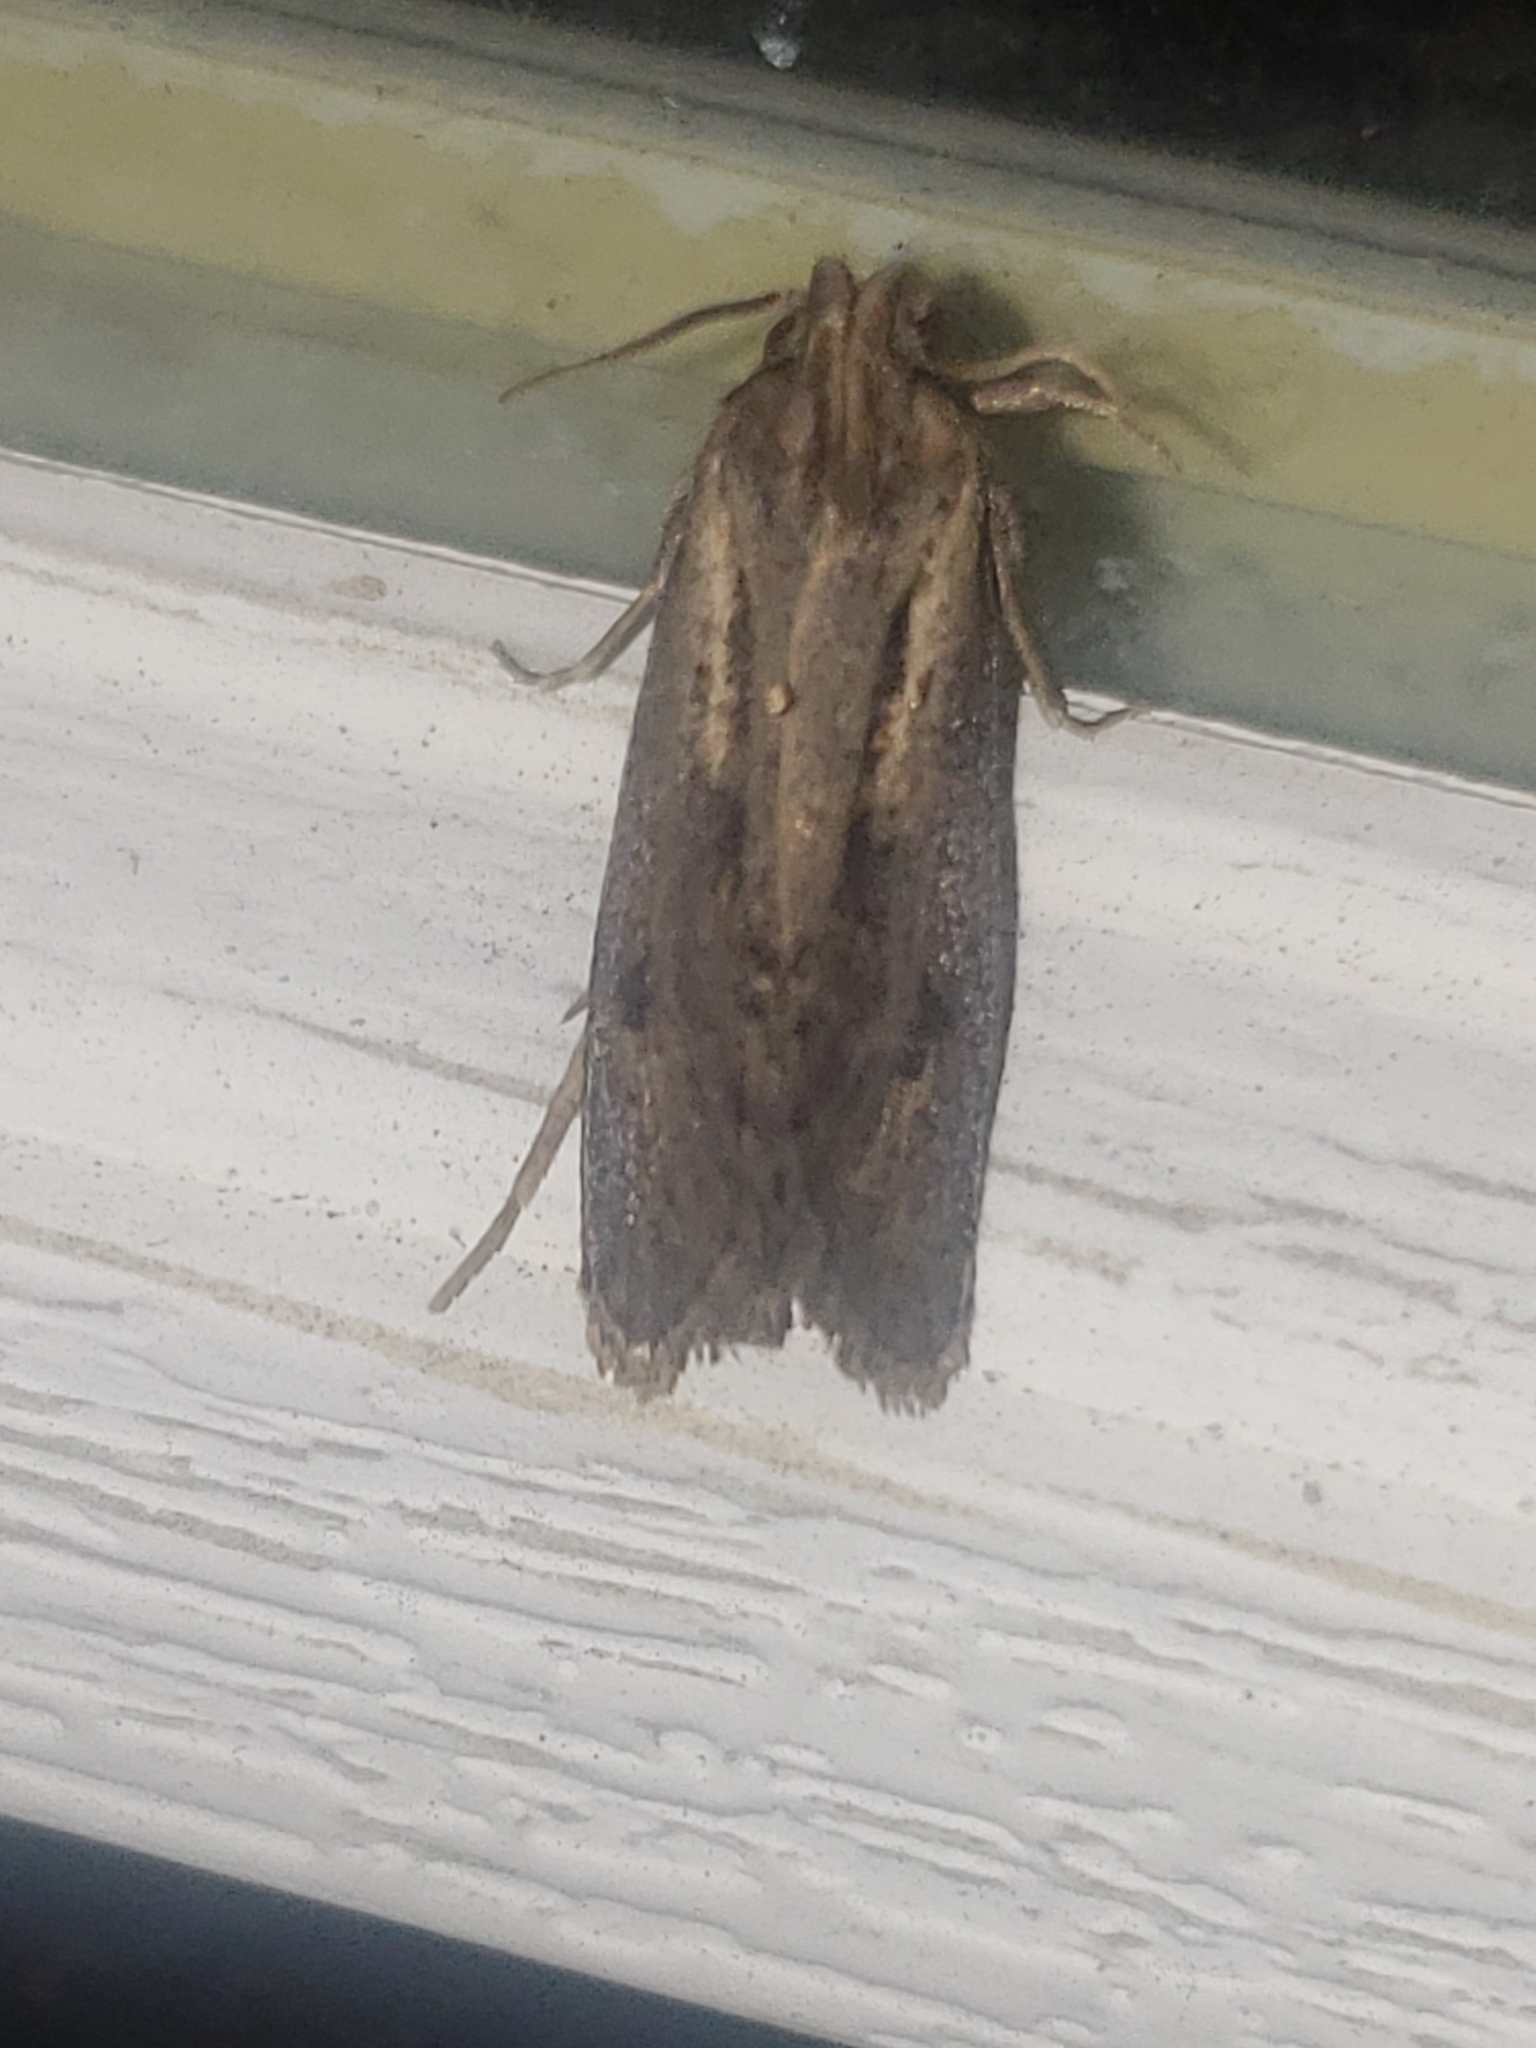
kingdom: Animalia
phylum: Arthropoda
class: Insecta
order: Lepidoptera
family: Tineidae
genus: Acrolophus
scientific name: Acrolophus popeanella
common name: Clemens' grass tubeworm moth
